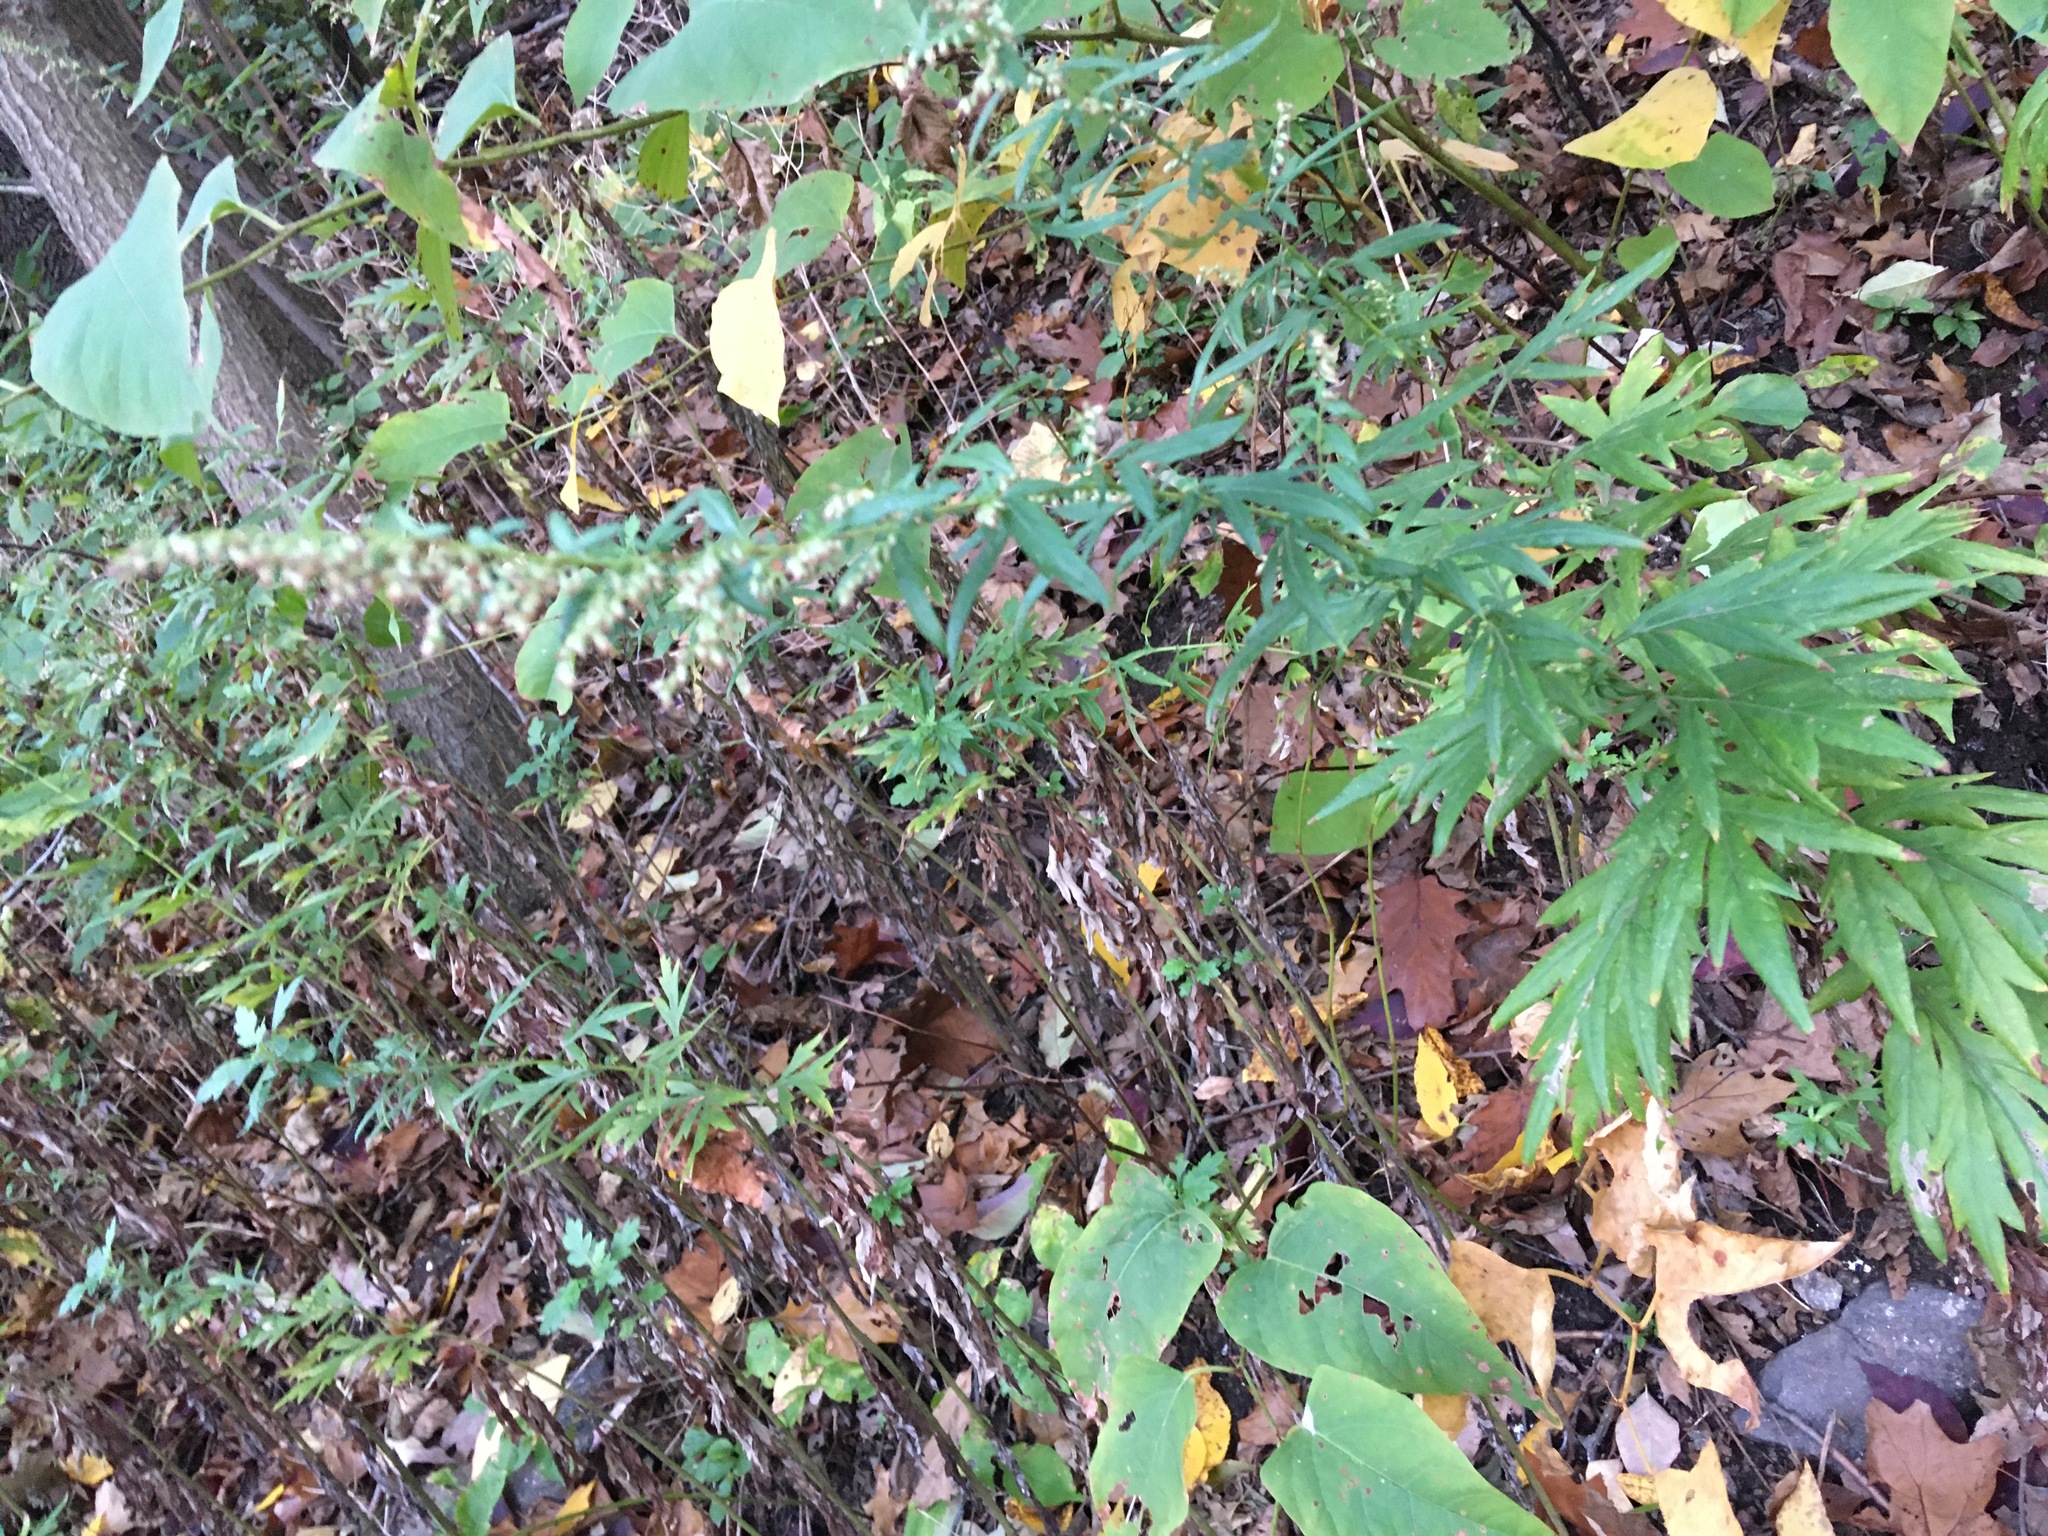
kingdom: Plantae
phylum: Tracheophyta
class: Magnoliopsida
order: Asterales
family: Asteraceae
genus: Artemisia
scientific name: Artemisia vulgaris
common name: Mugwort
